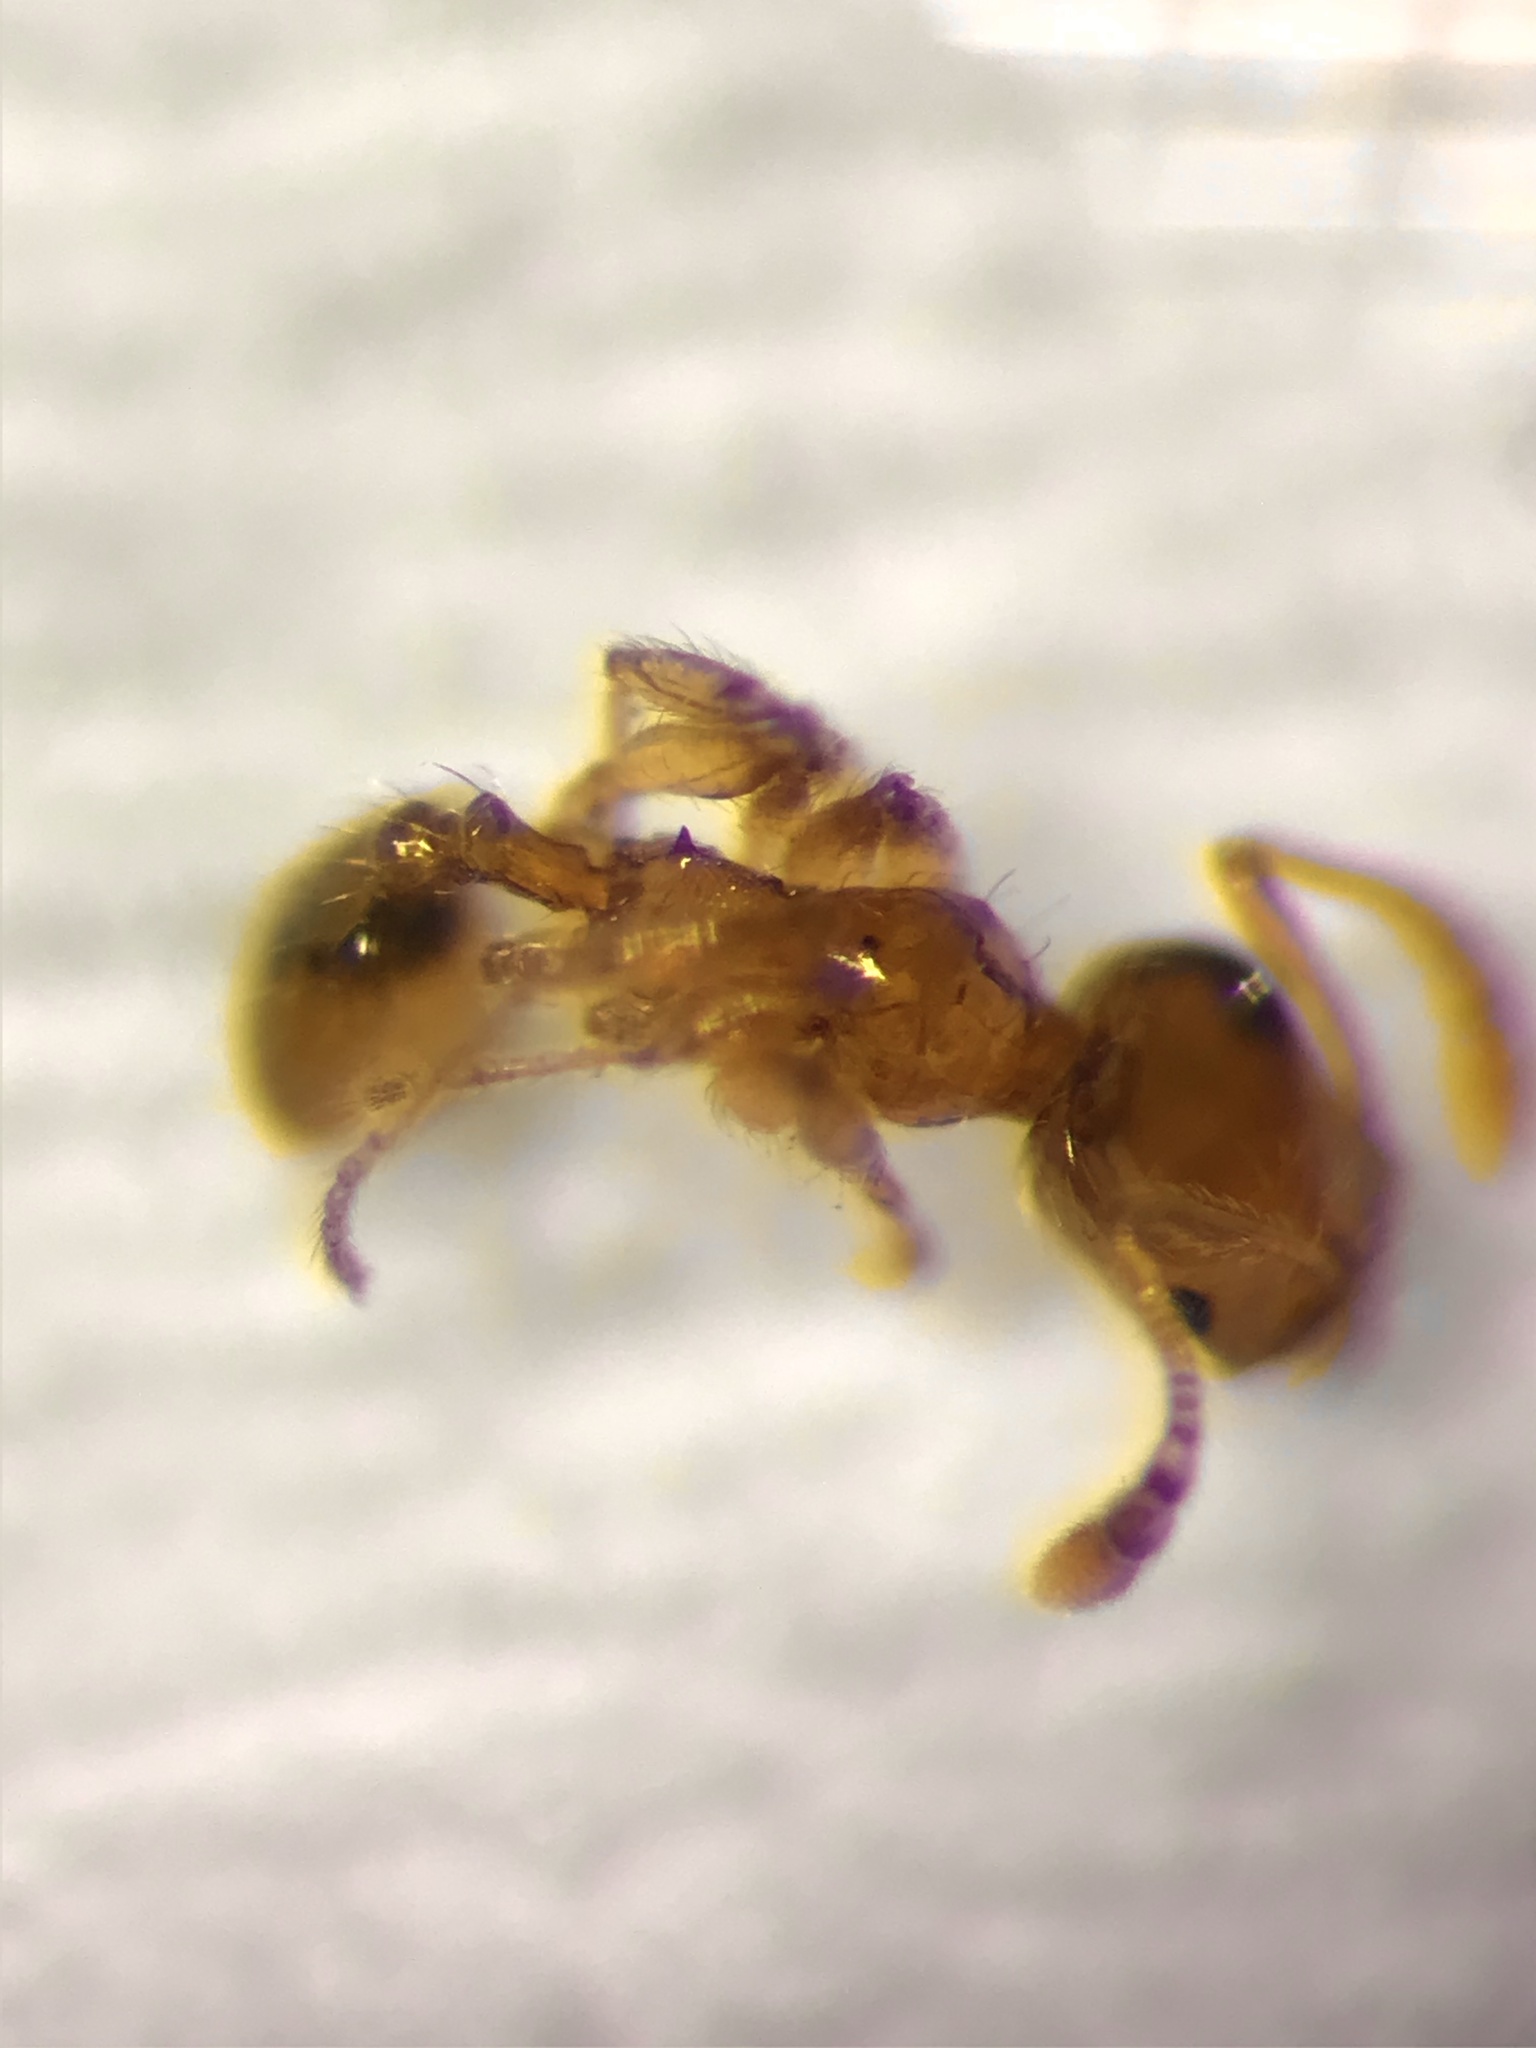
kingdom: Animalia
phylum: Arthropoda
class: Insecta
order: Hymenoptera
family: Formicidae
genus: Pheidole
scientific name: Pheidole tysoni
